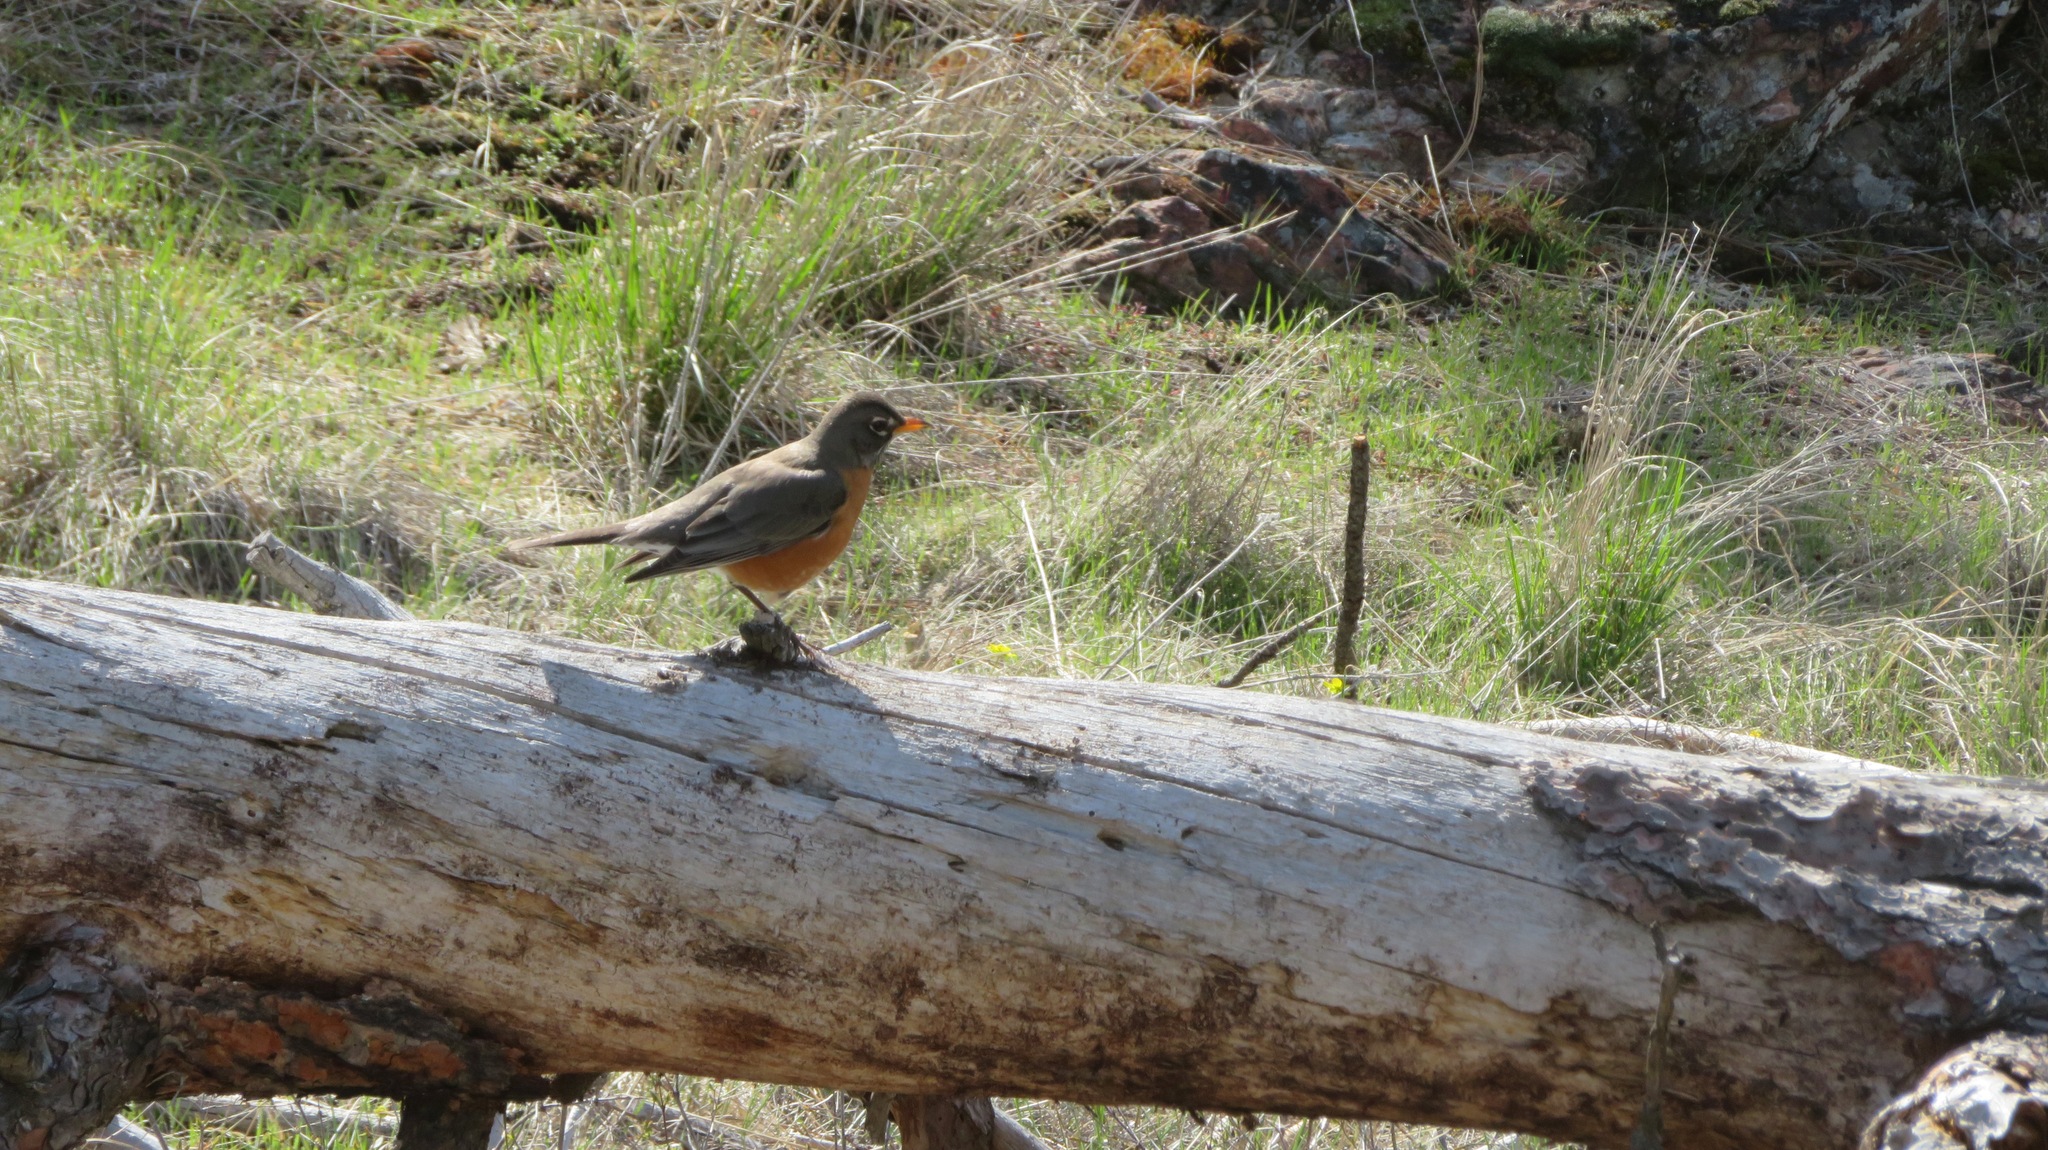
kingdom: Animalia
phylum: Chordata
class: Aves
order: Passeriformes
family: Turdidae
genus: Turdus
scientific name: Turdus migratorius
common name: American robin
